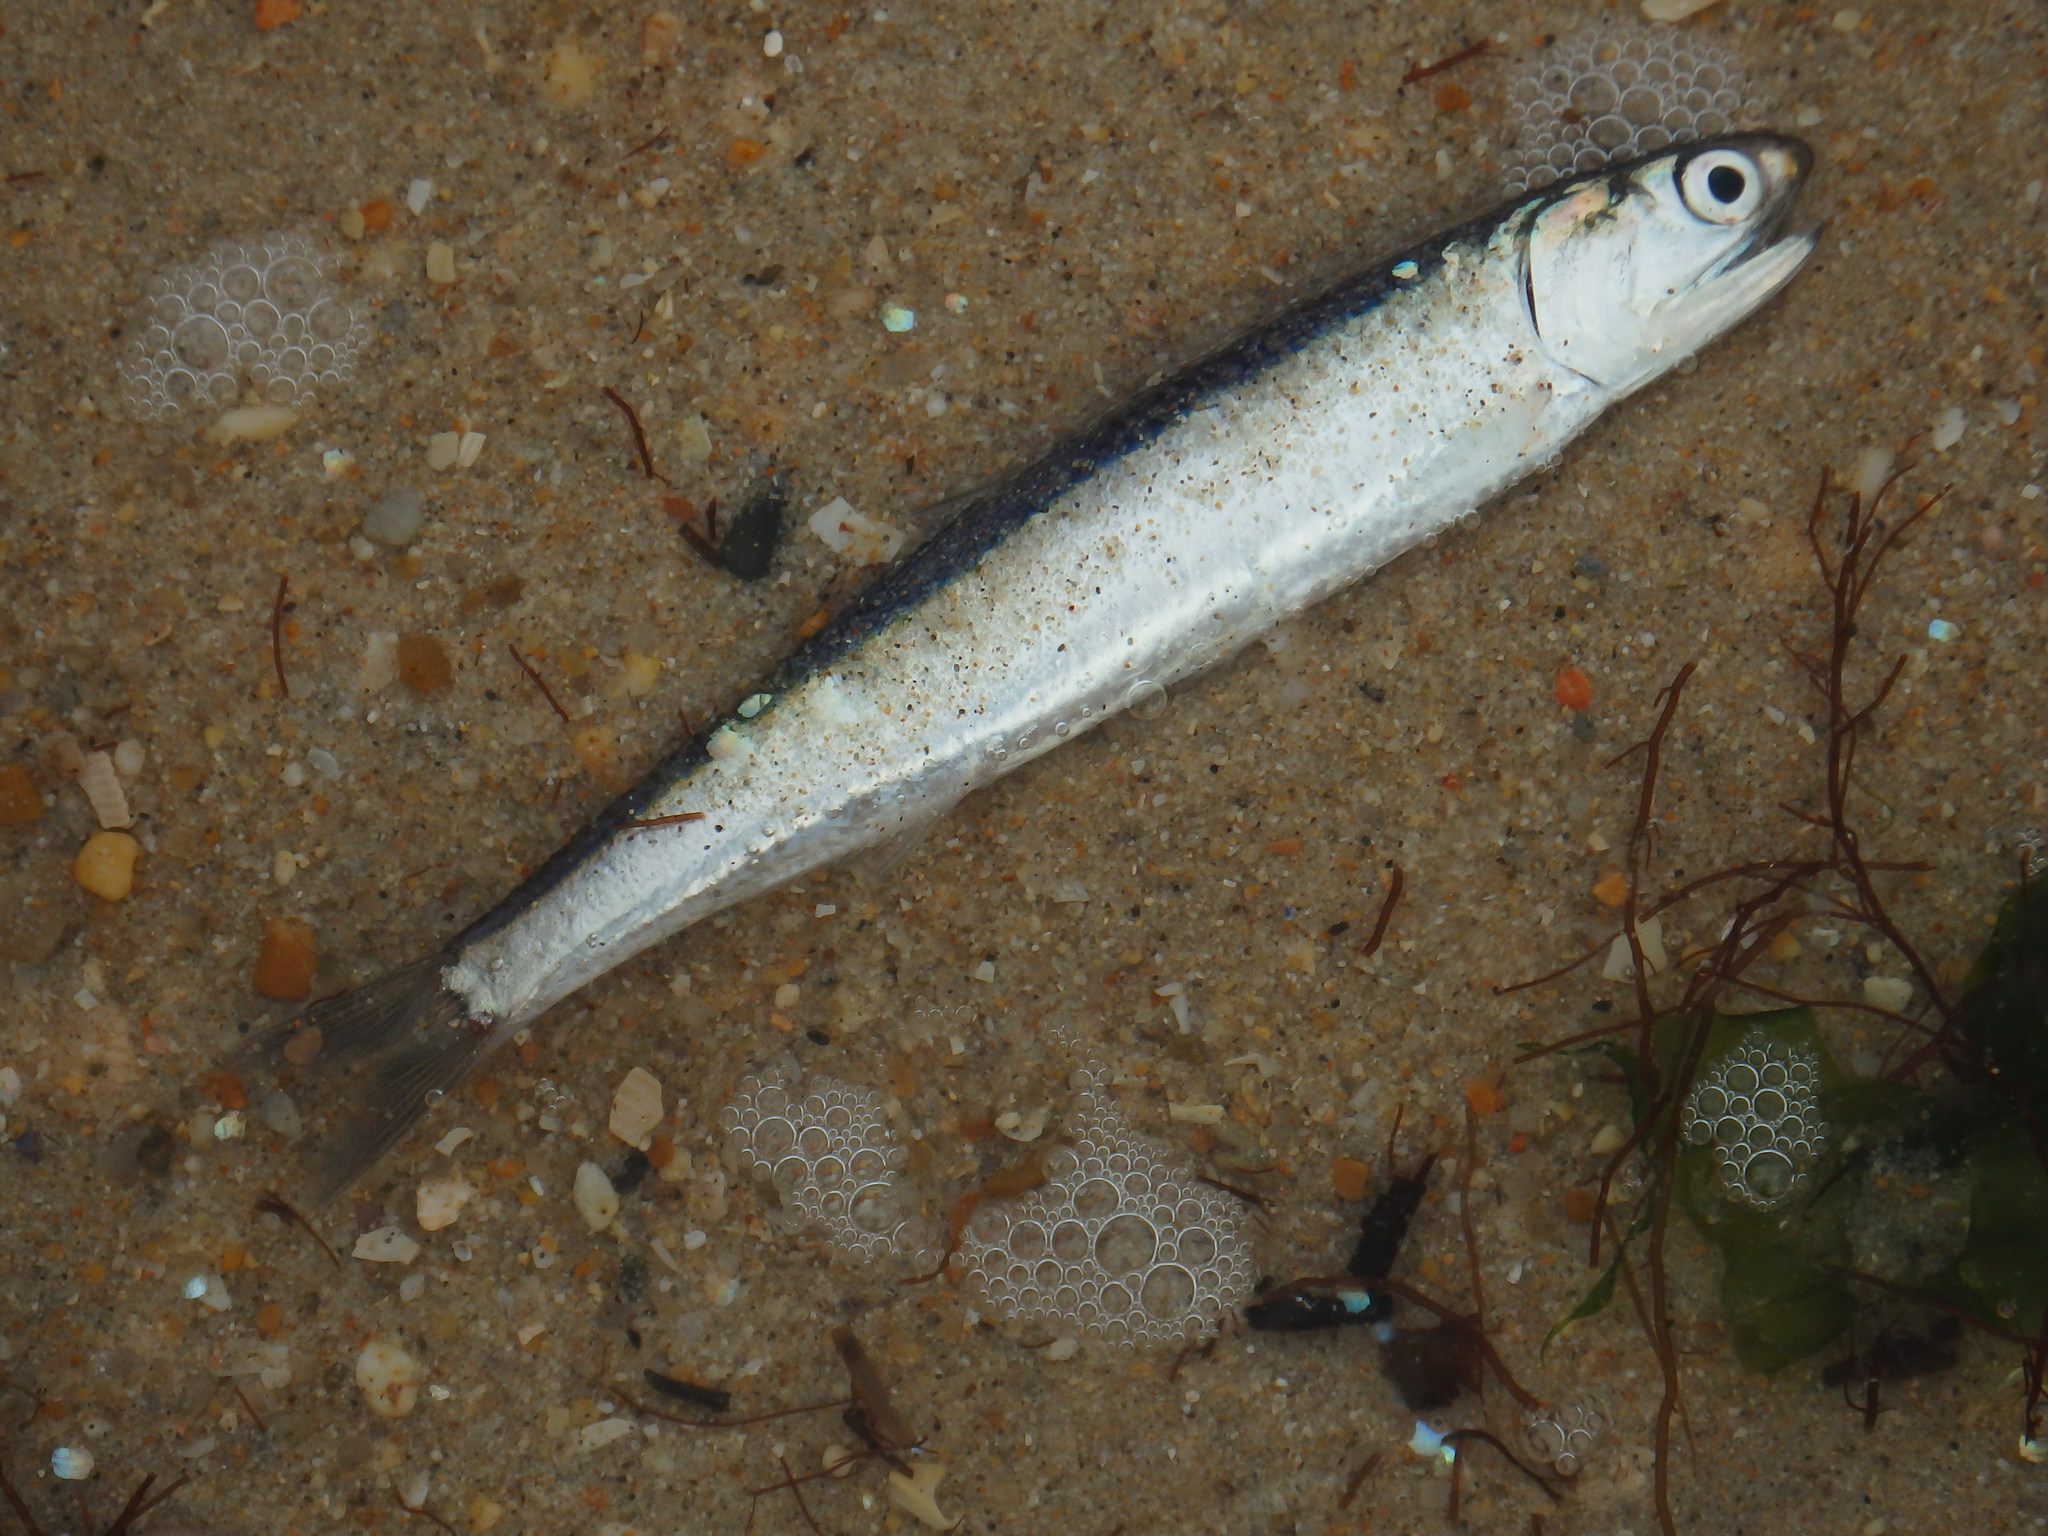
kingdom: Animalia
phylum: Chordata
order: Clupeiformes
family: Engraulidae
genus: Engraulis
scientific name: Engraulis encrasicolus
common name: European anchovy
